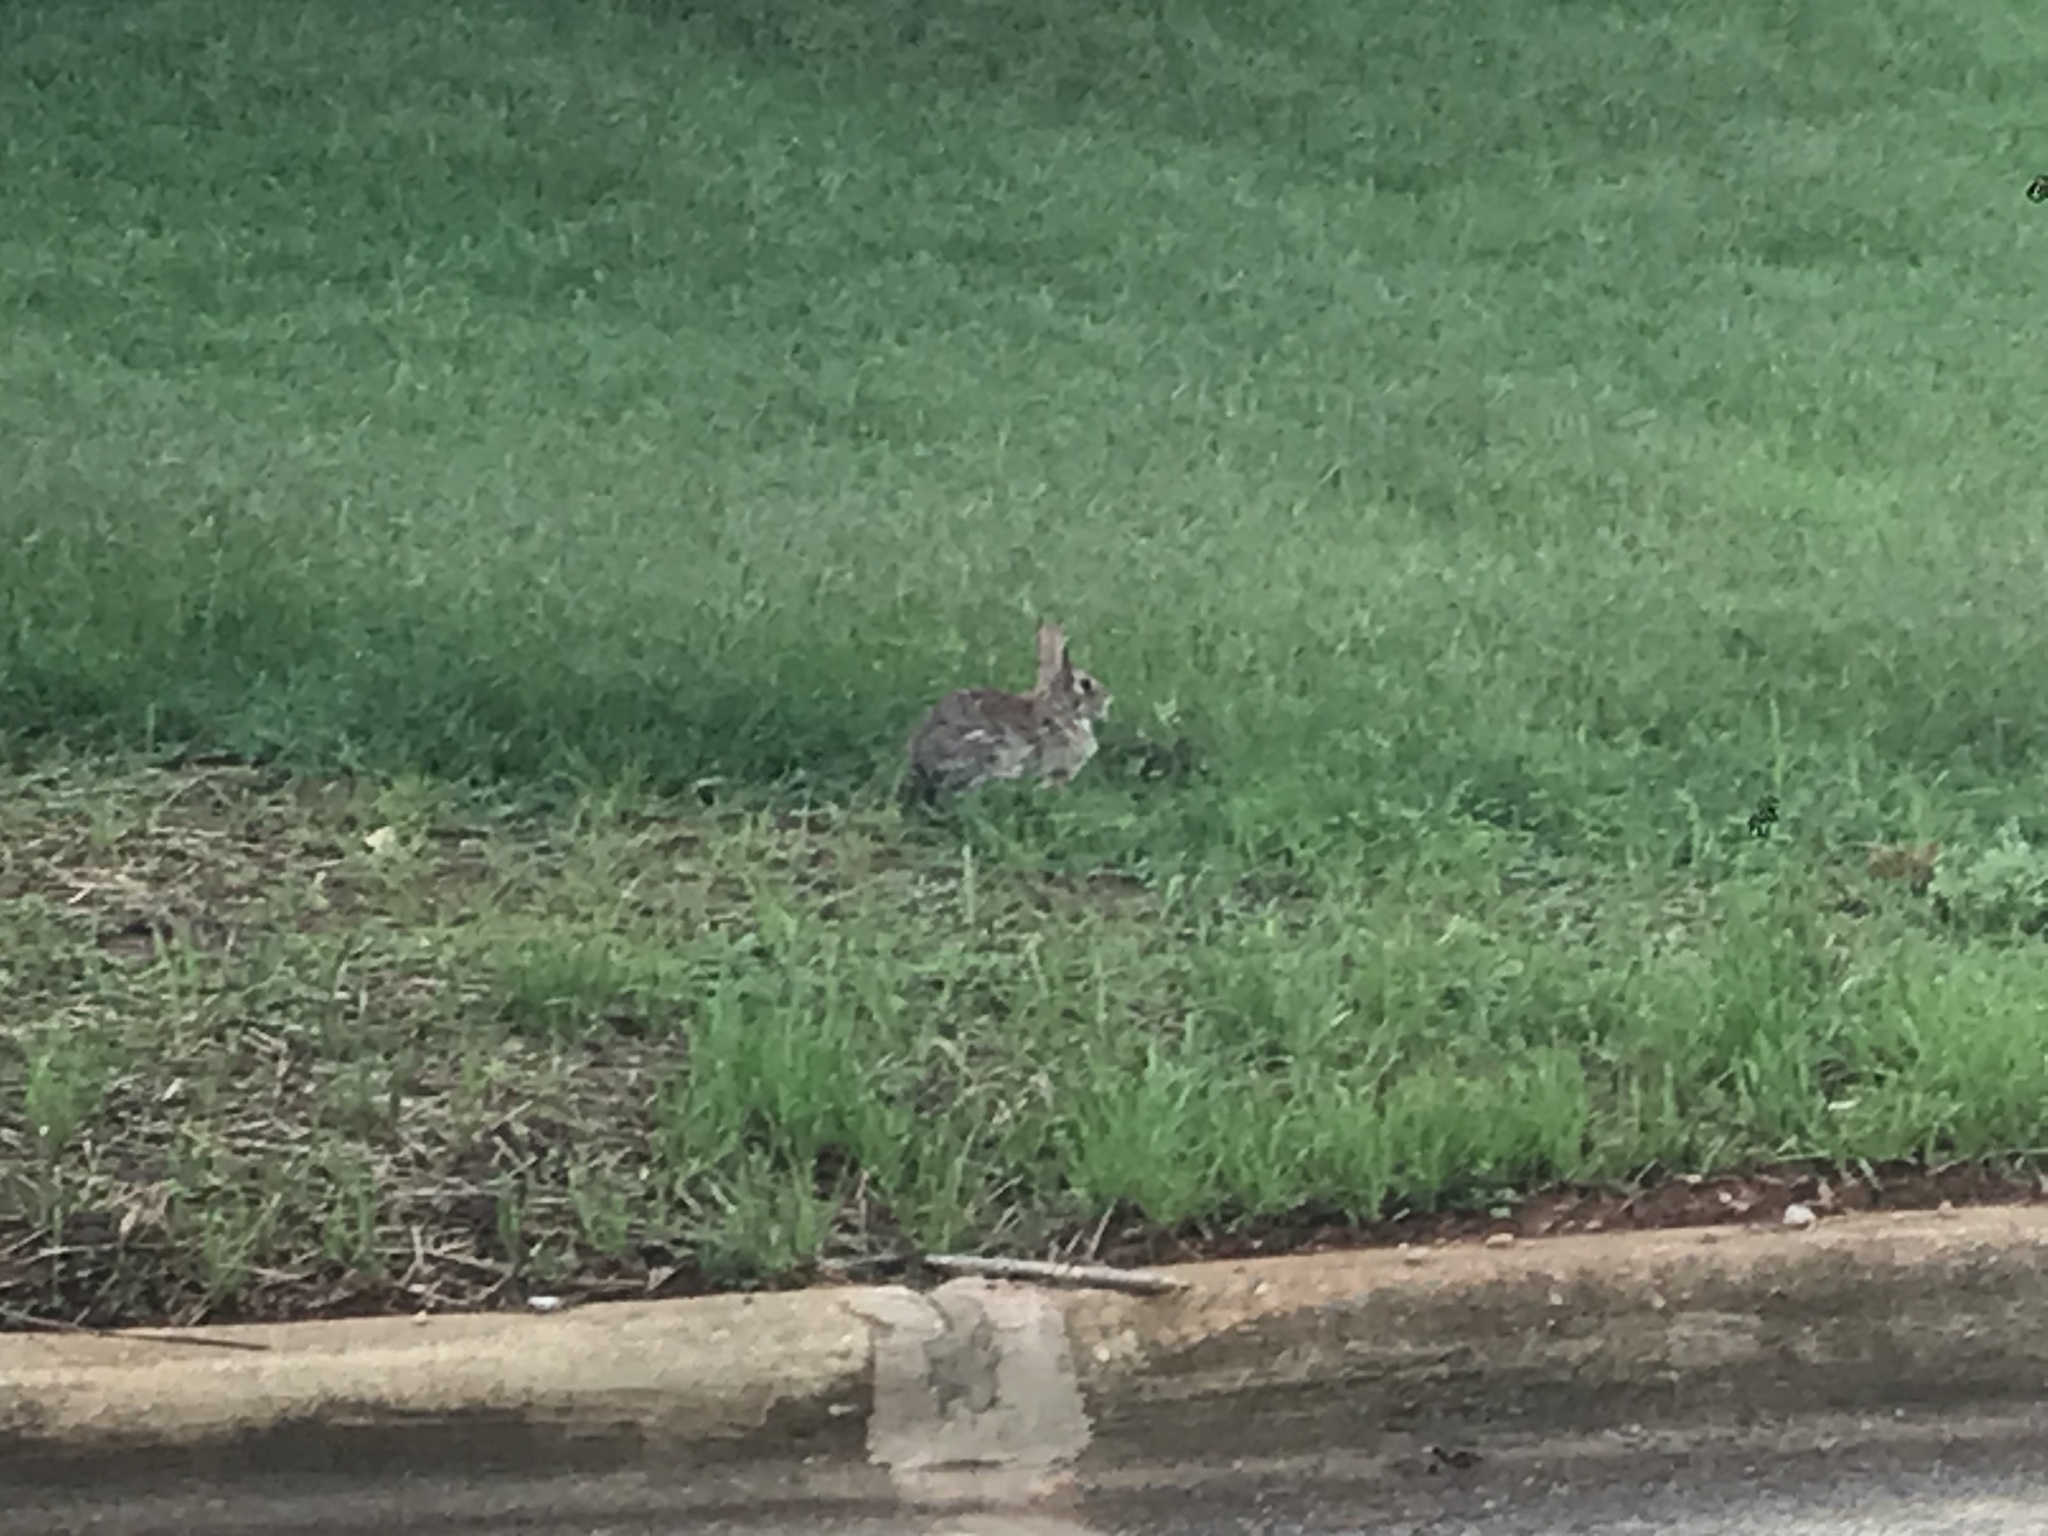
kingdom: Animalia
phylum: Chordata
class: Mammalia
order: Lagomorpha
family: Leporidae
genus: Sylvilagus
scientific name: Sylvilagus floridanus
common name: Eastern cottontail
